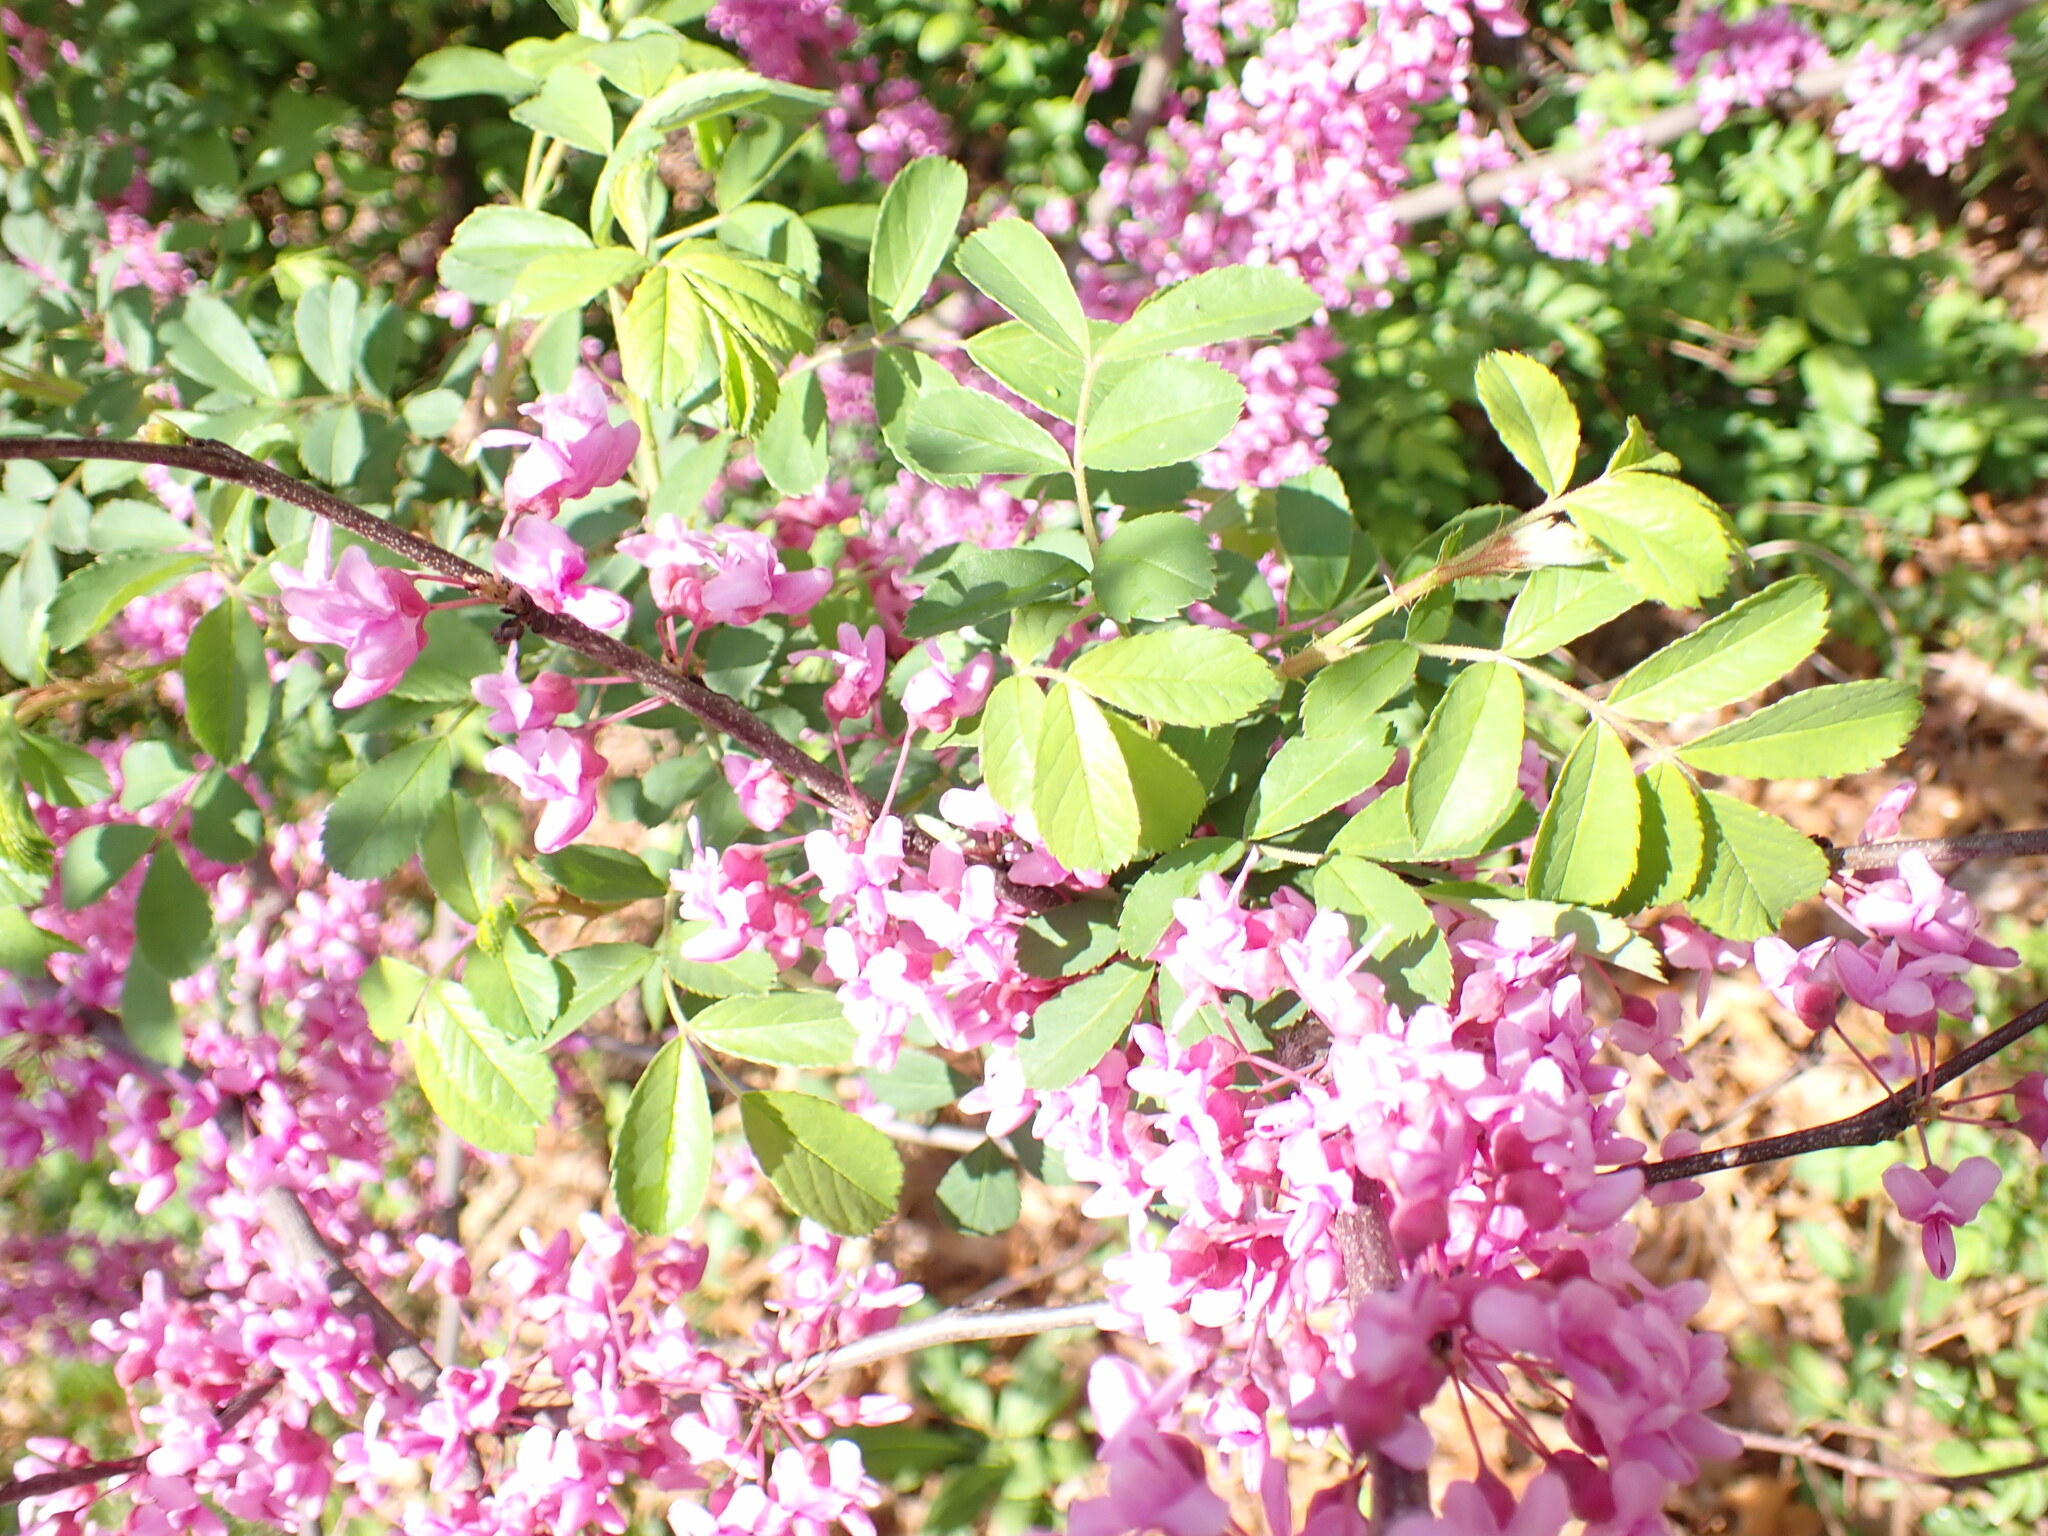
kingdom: Plantae
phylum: Tracheophyta
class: Magnoliopsida
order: Fabales
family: Fabaceae
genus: Cercis
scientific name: Cercis canadensis
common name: Eastern redbud
